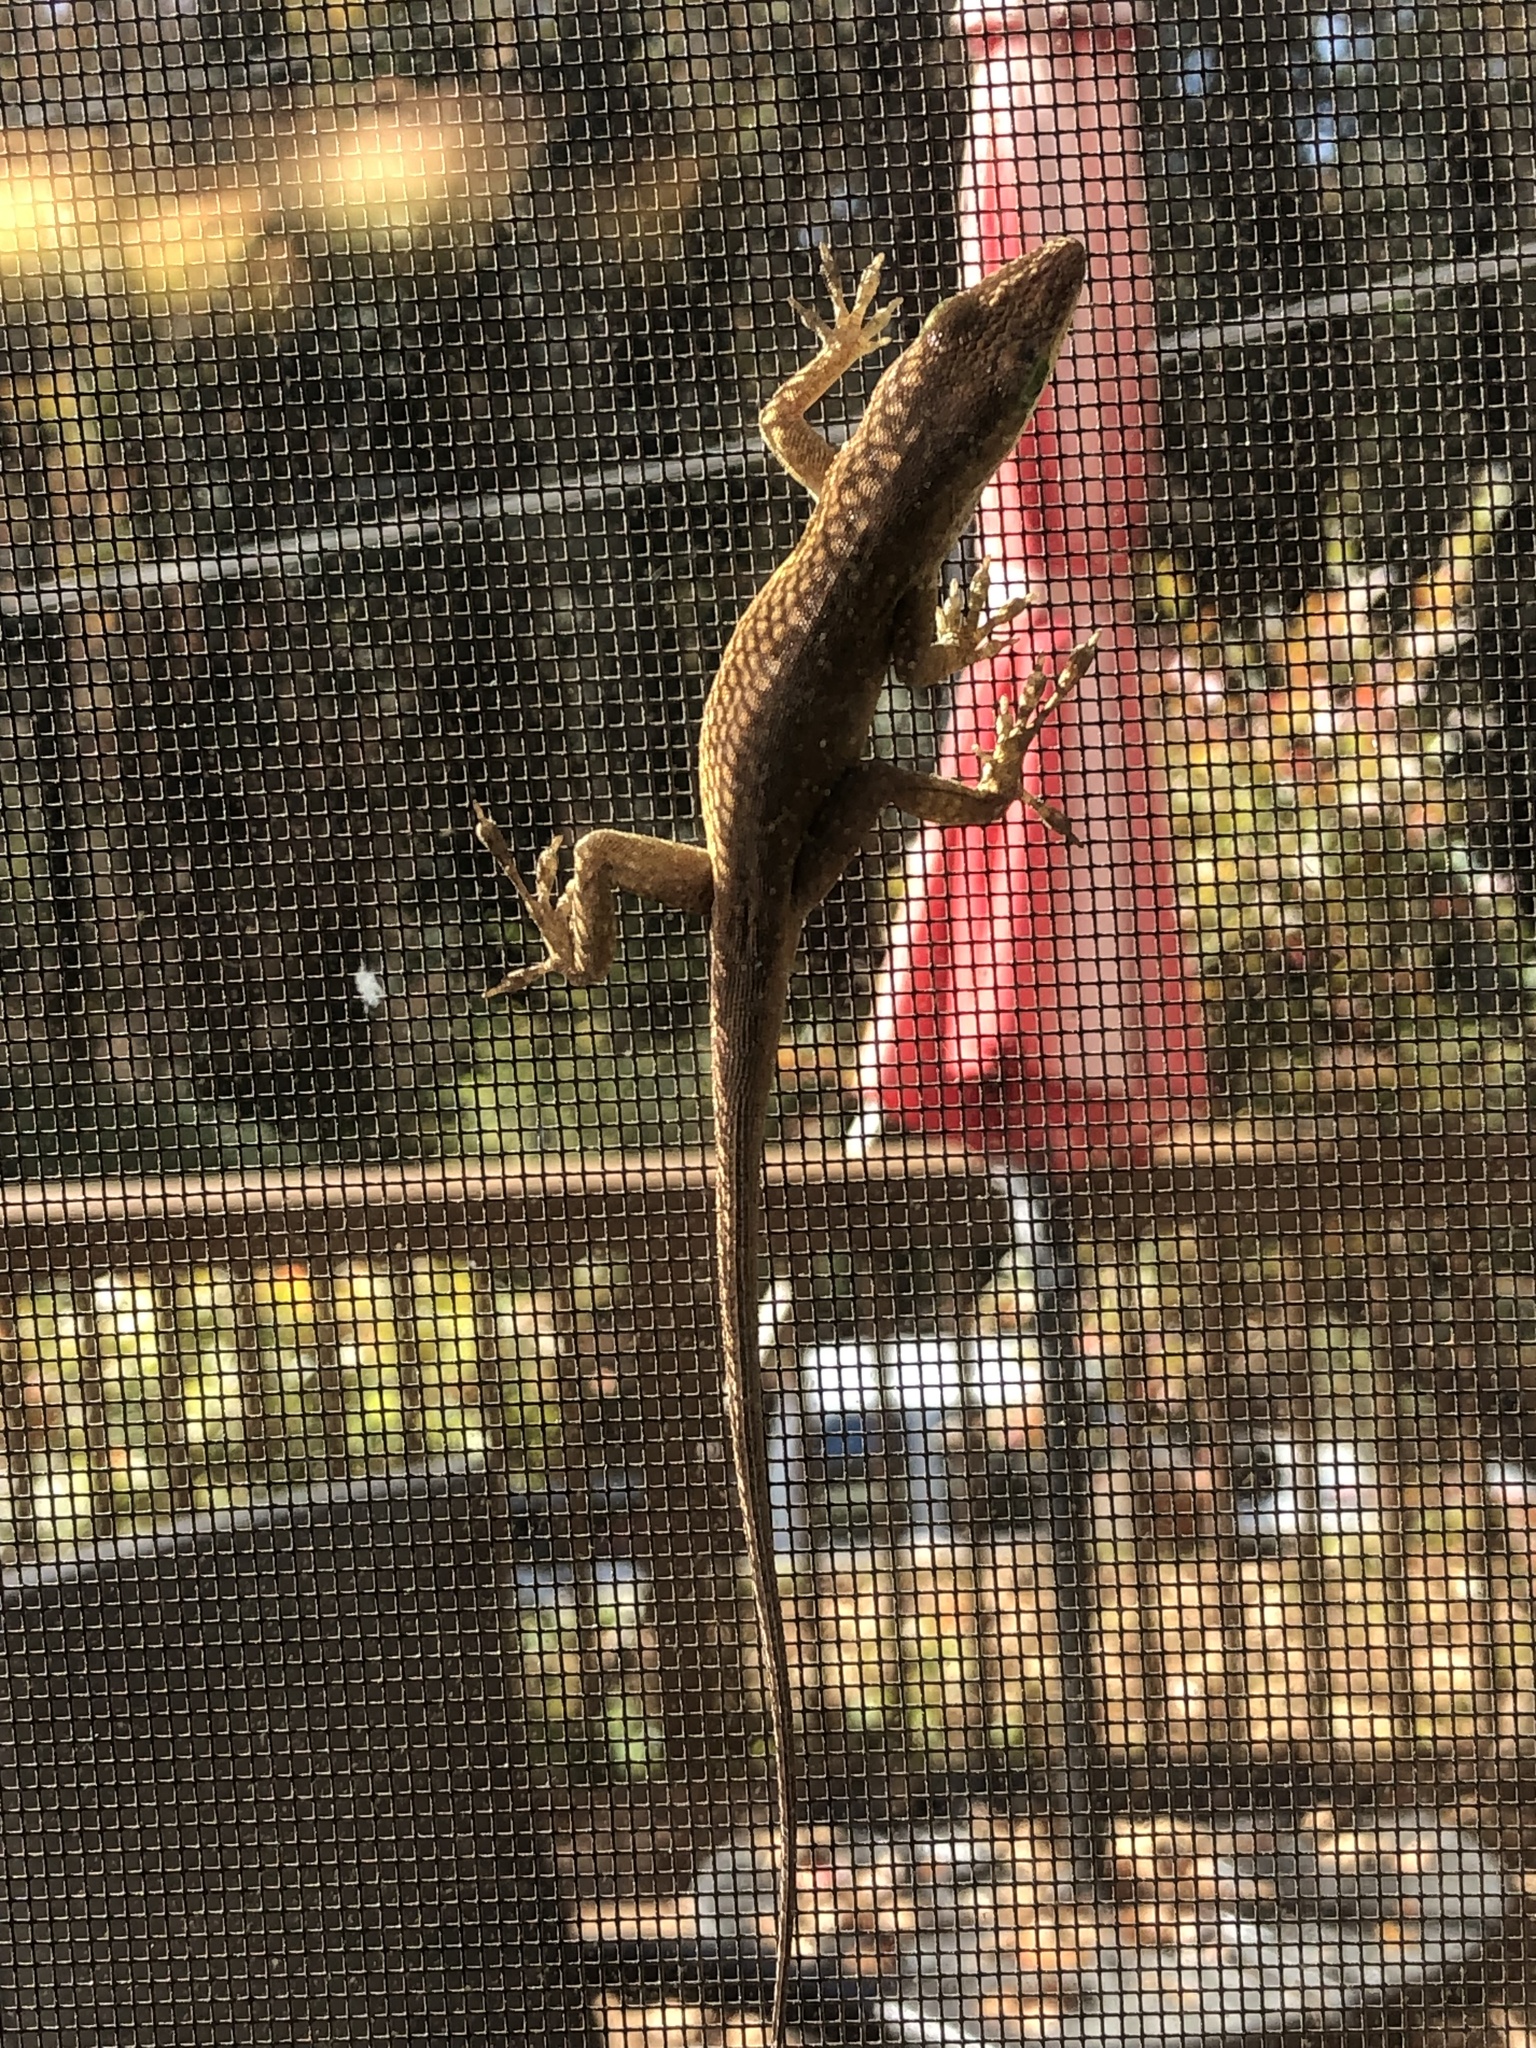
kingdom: Animalia
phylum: Chordata
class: Squamata
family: Dactyloidae
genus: Anolis
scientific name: Anolis carolinensis
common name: Green anole
